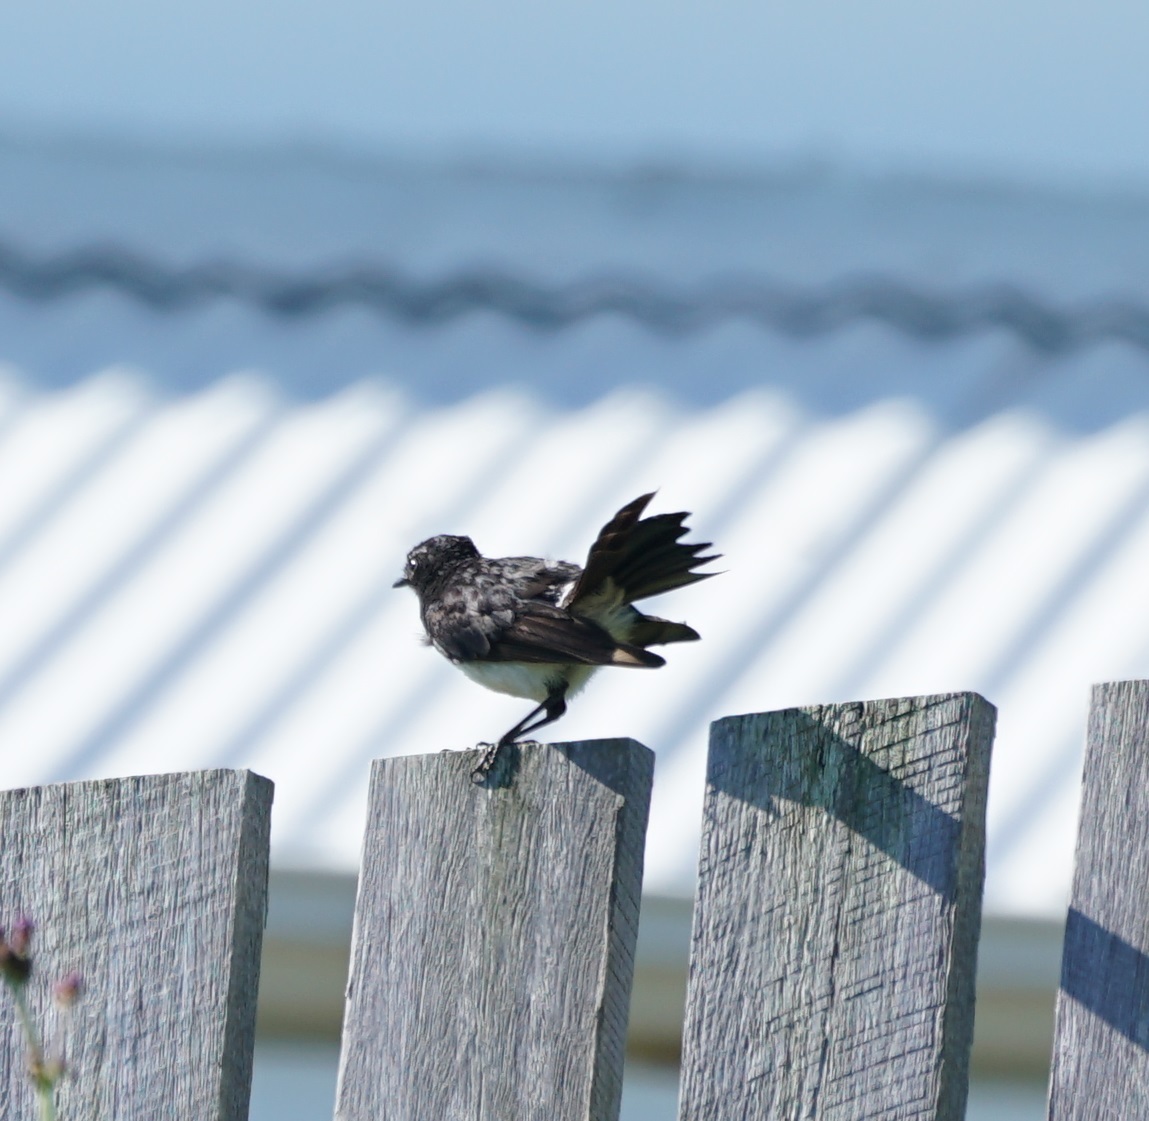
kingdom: Animalia
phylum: Chordata
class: Aves
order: Passeriformes
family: Rhipiduridae
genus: Rhipidura
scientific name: Rhipidura leucophrys
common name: Willie wagtail
